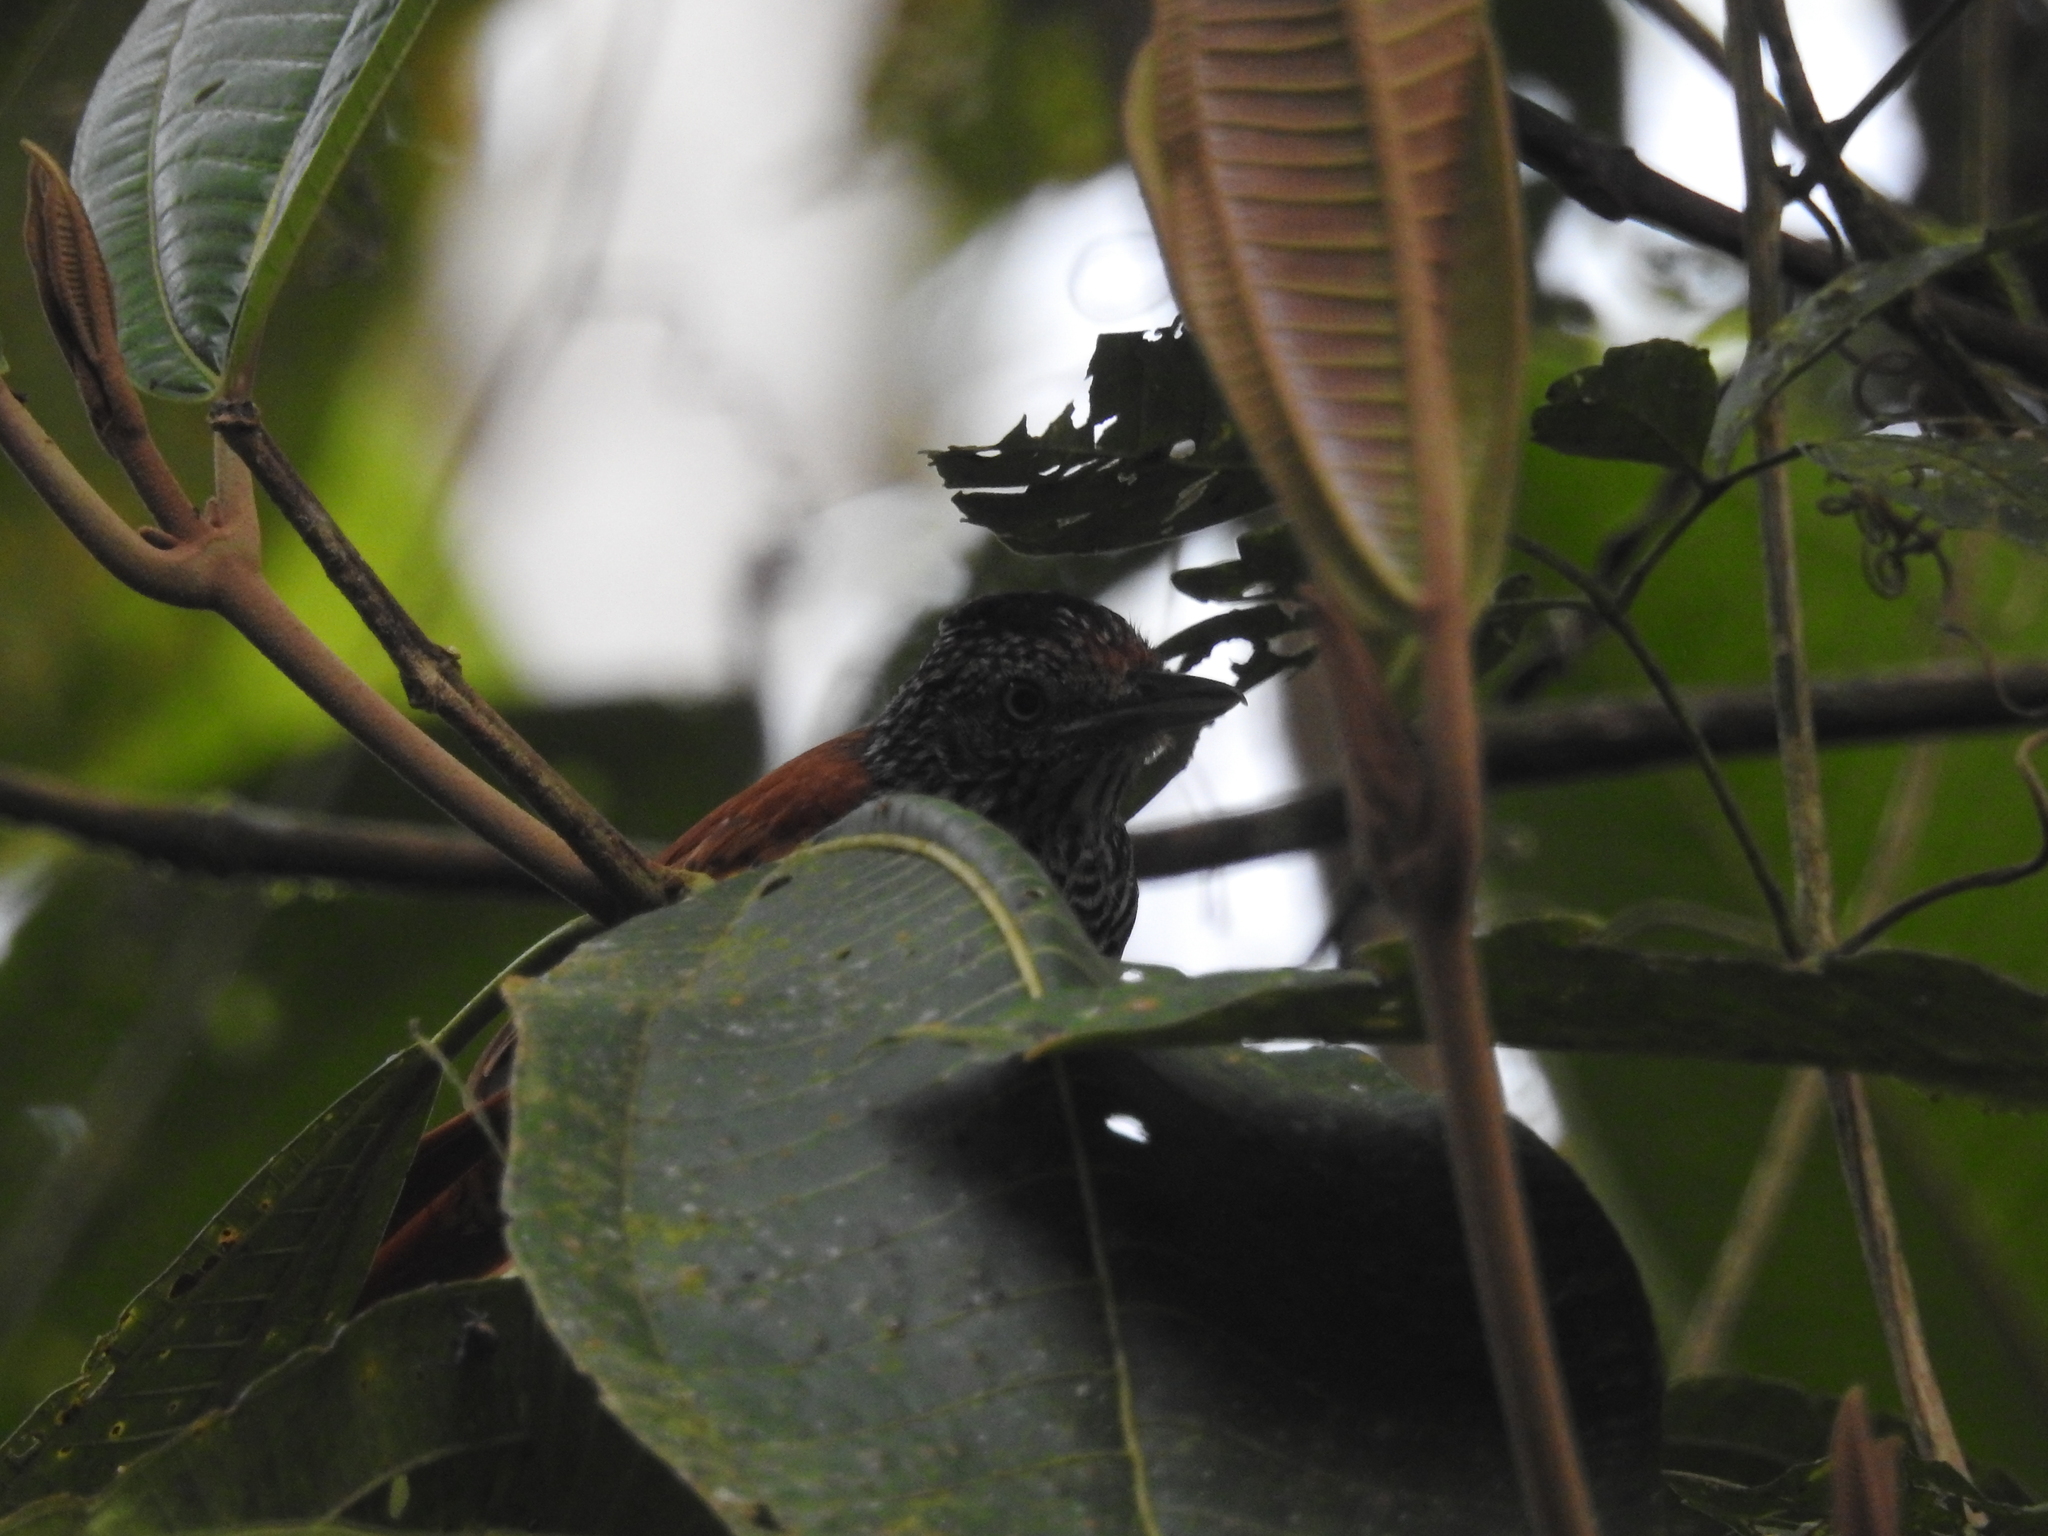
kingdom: Animalia
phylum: Chordata
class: Aves
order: Passeriformes
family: Thamnophilidae
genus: Thamnophilus
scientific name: Thamnophilus palliatus
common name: Chestnut-backed antshrike
